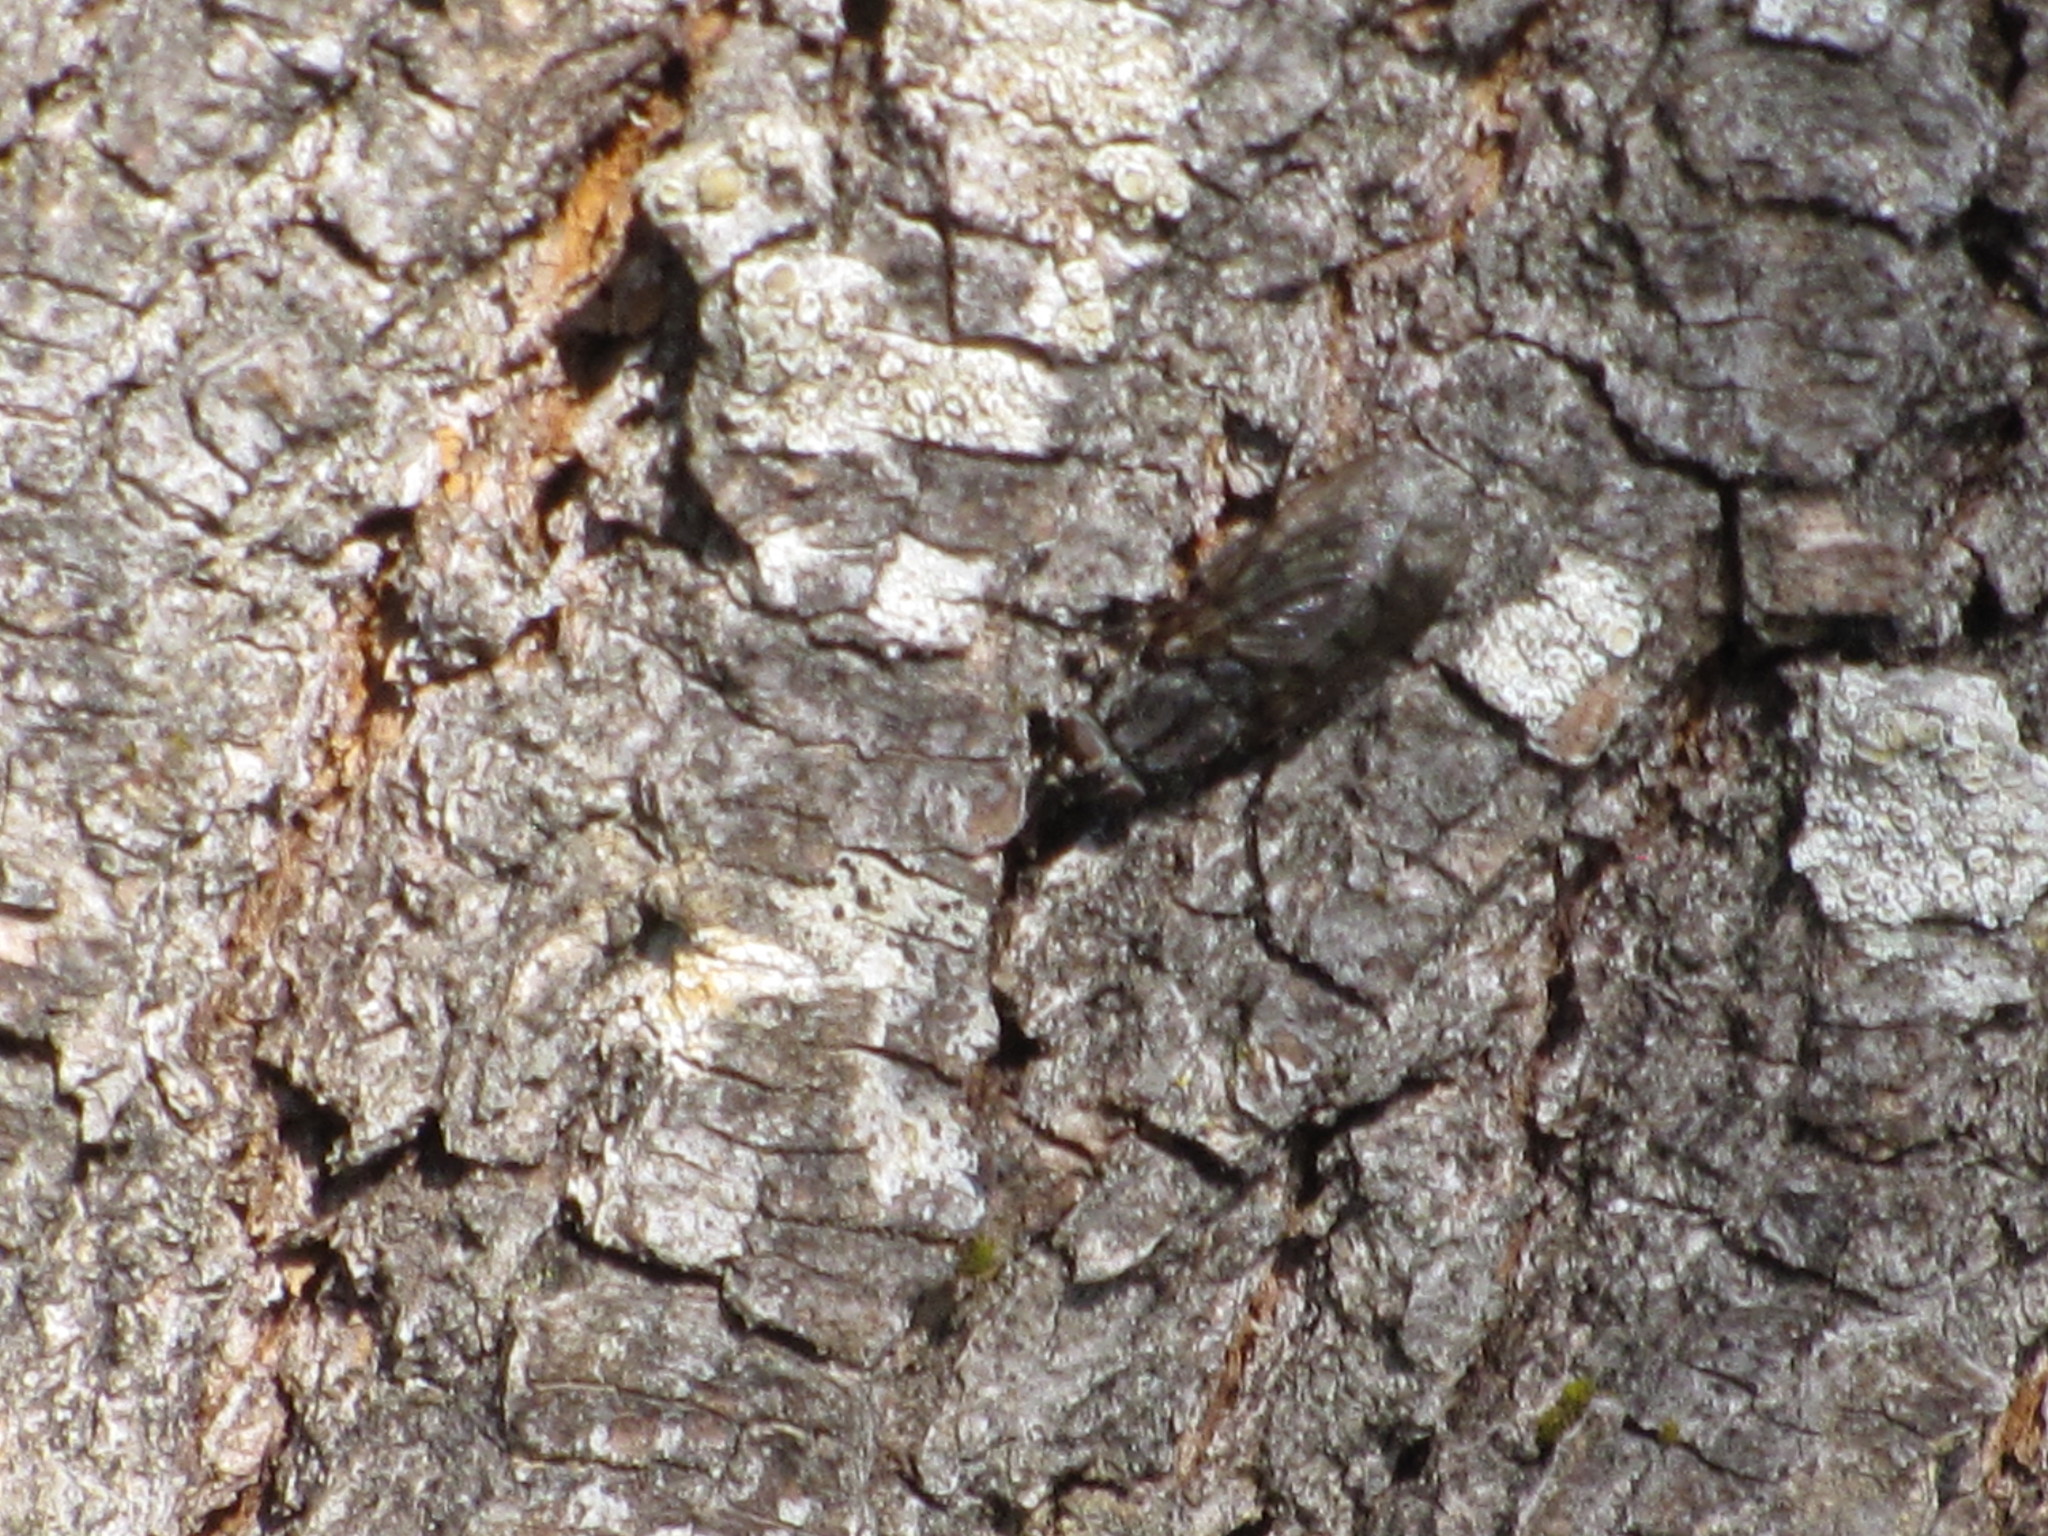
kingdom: Animalia
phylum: Arthropoda
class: Insecta
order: Diptera
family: Polleniidae
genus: Pollenia
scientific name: Pollenia vagabunda
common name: Vagabund cluster fly
